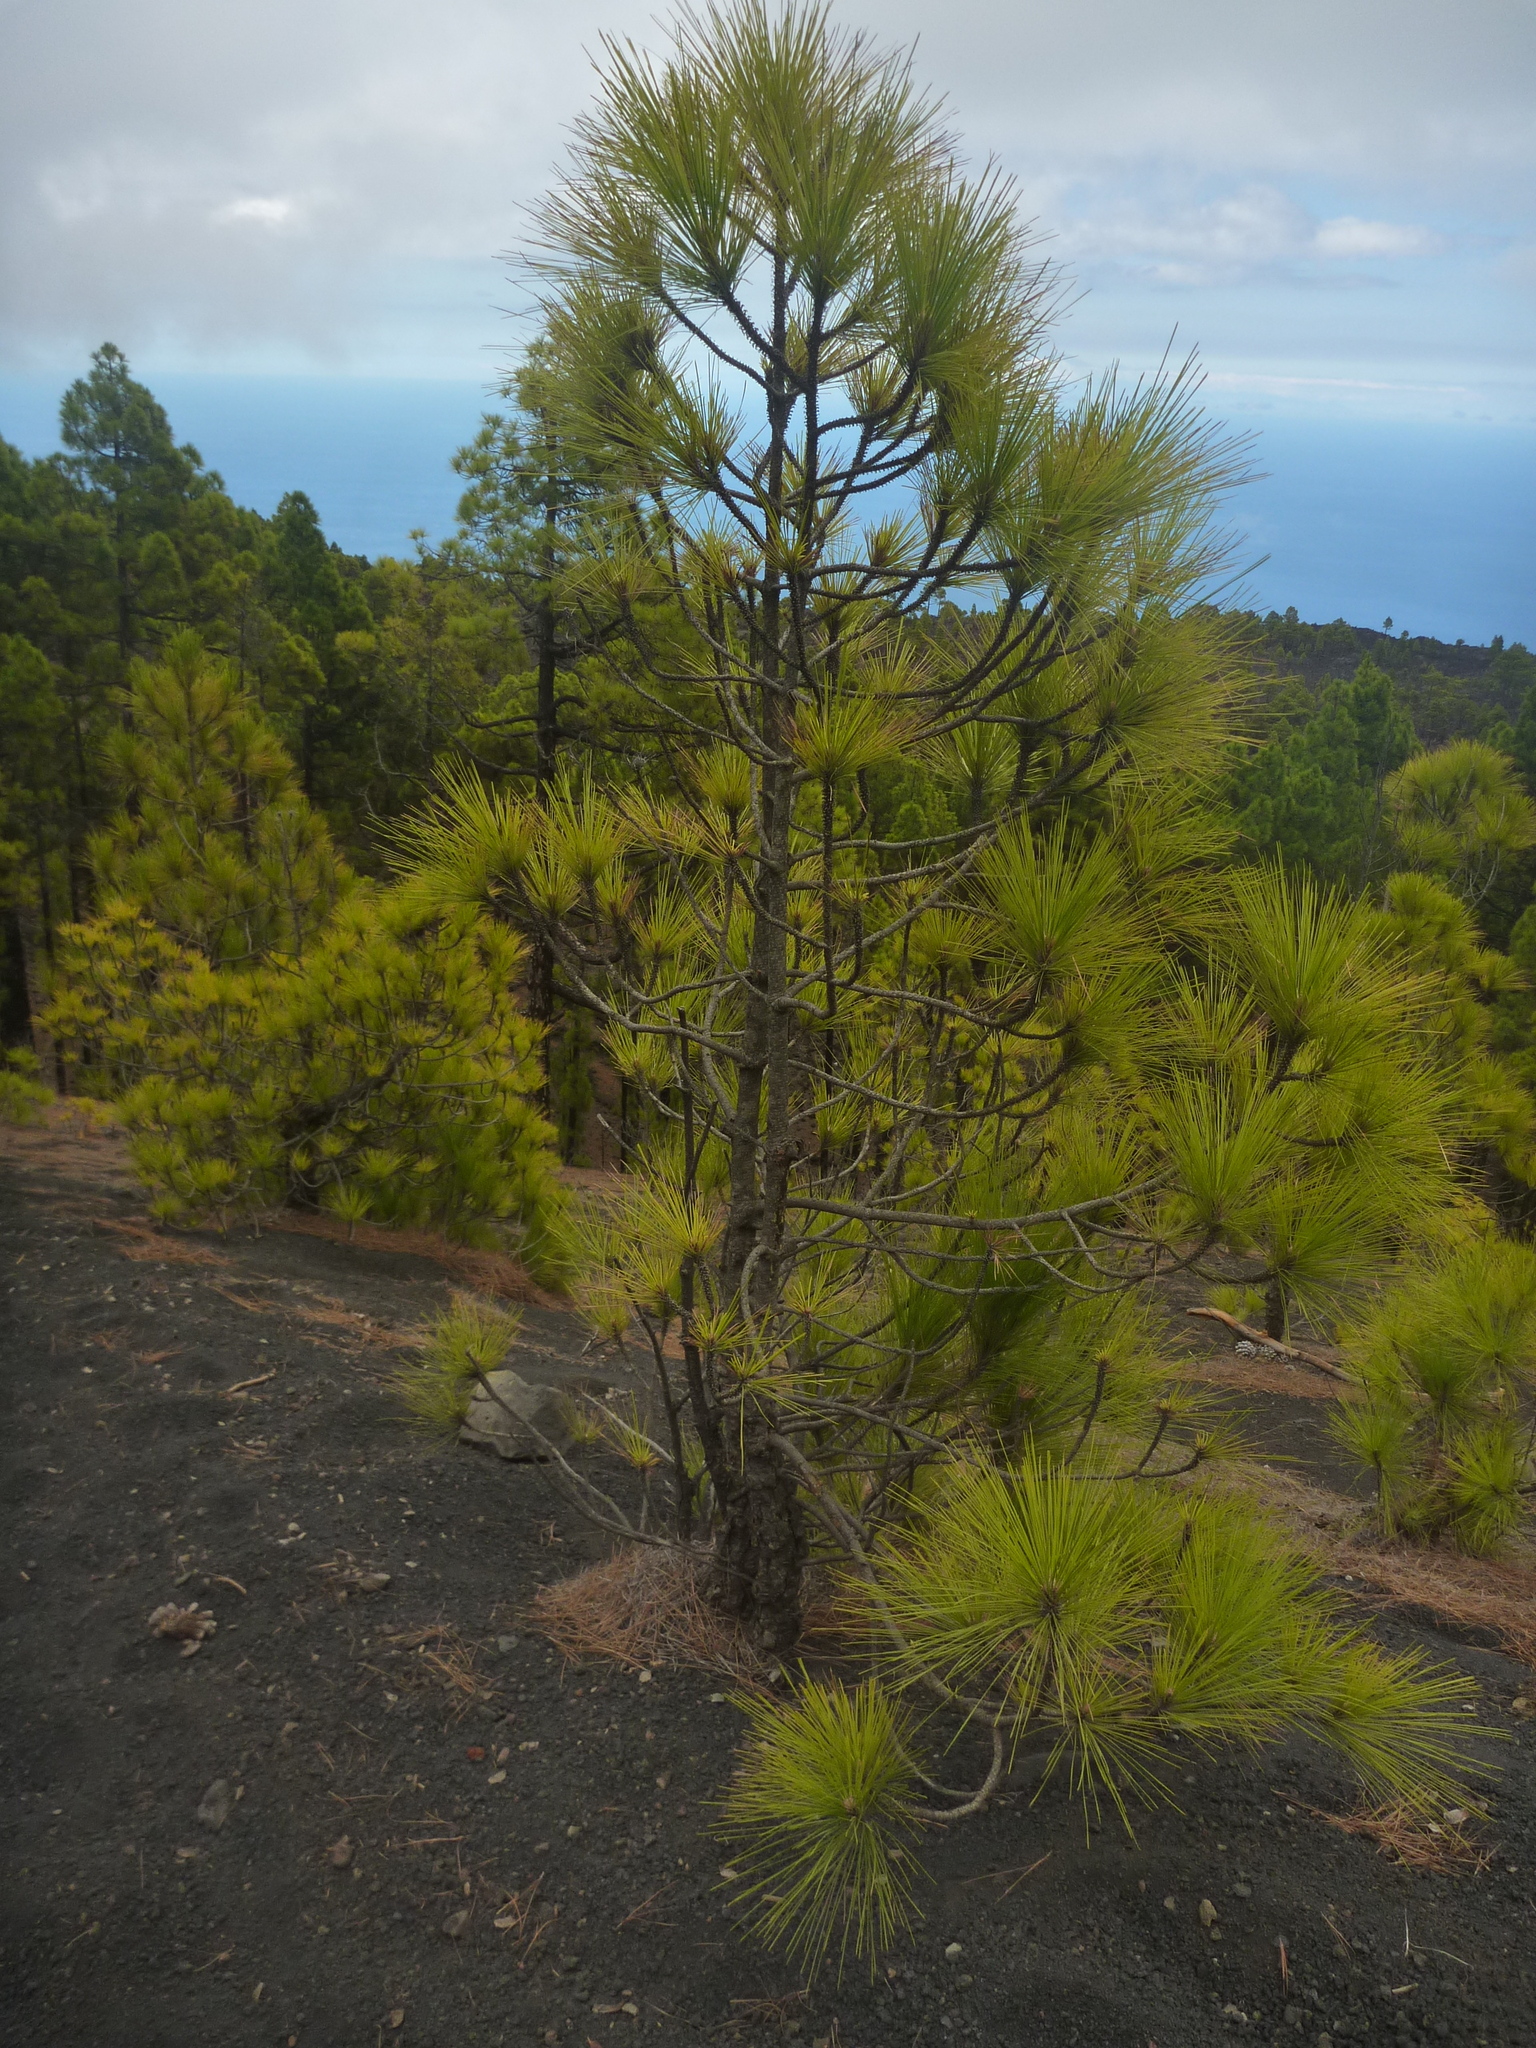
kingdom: Plantae
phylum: Tracheophyta
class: Pinopsida
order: Pinales
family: Pinaceae
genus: Pinus
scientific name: Pinus canariensis
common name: Canary islands pine
